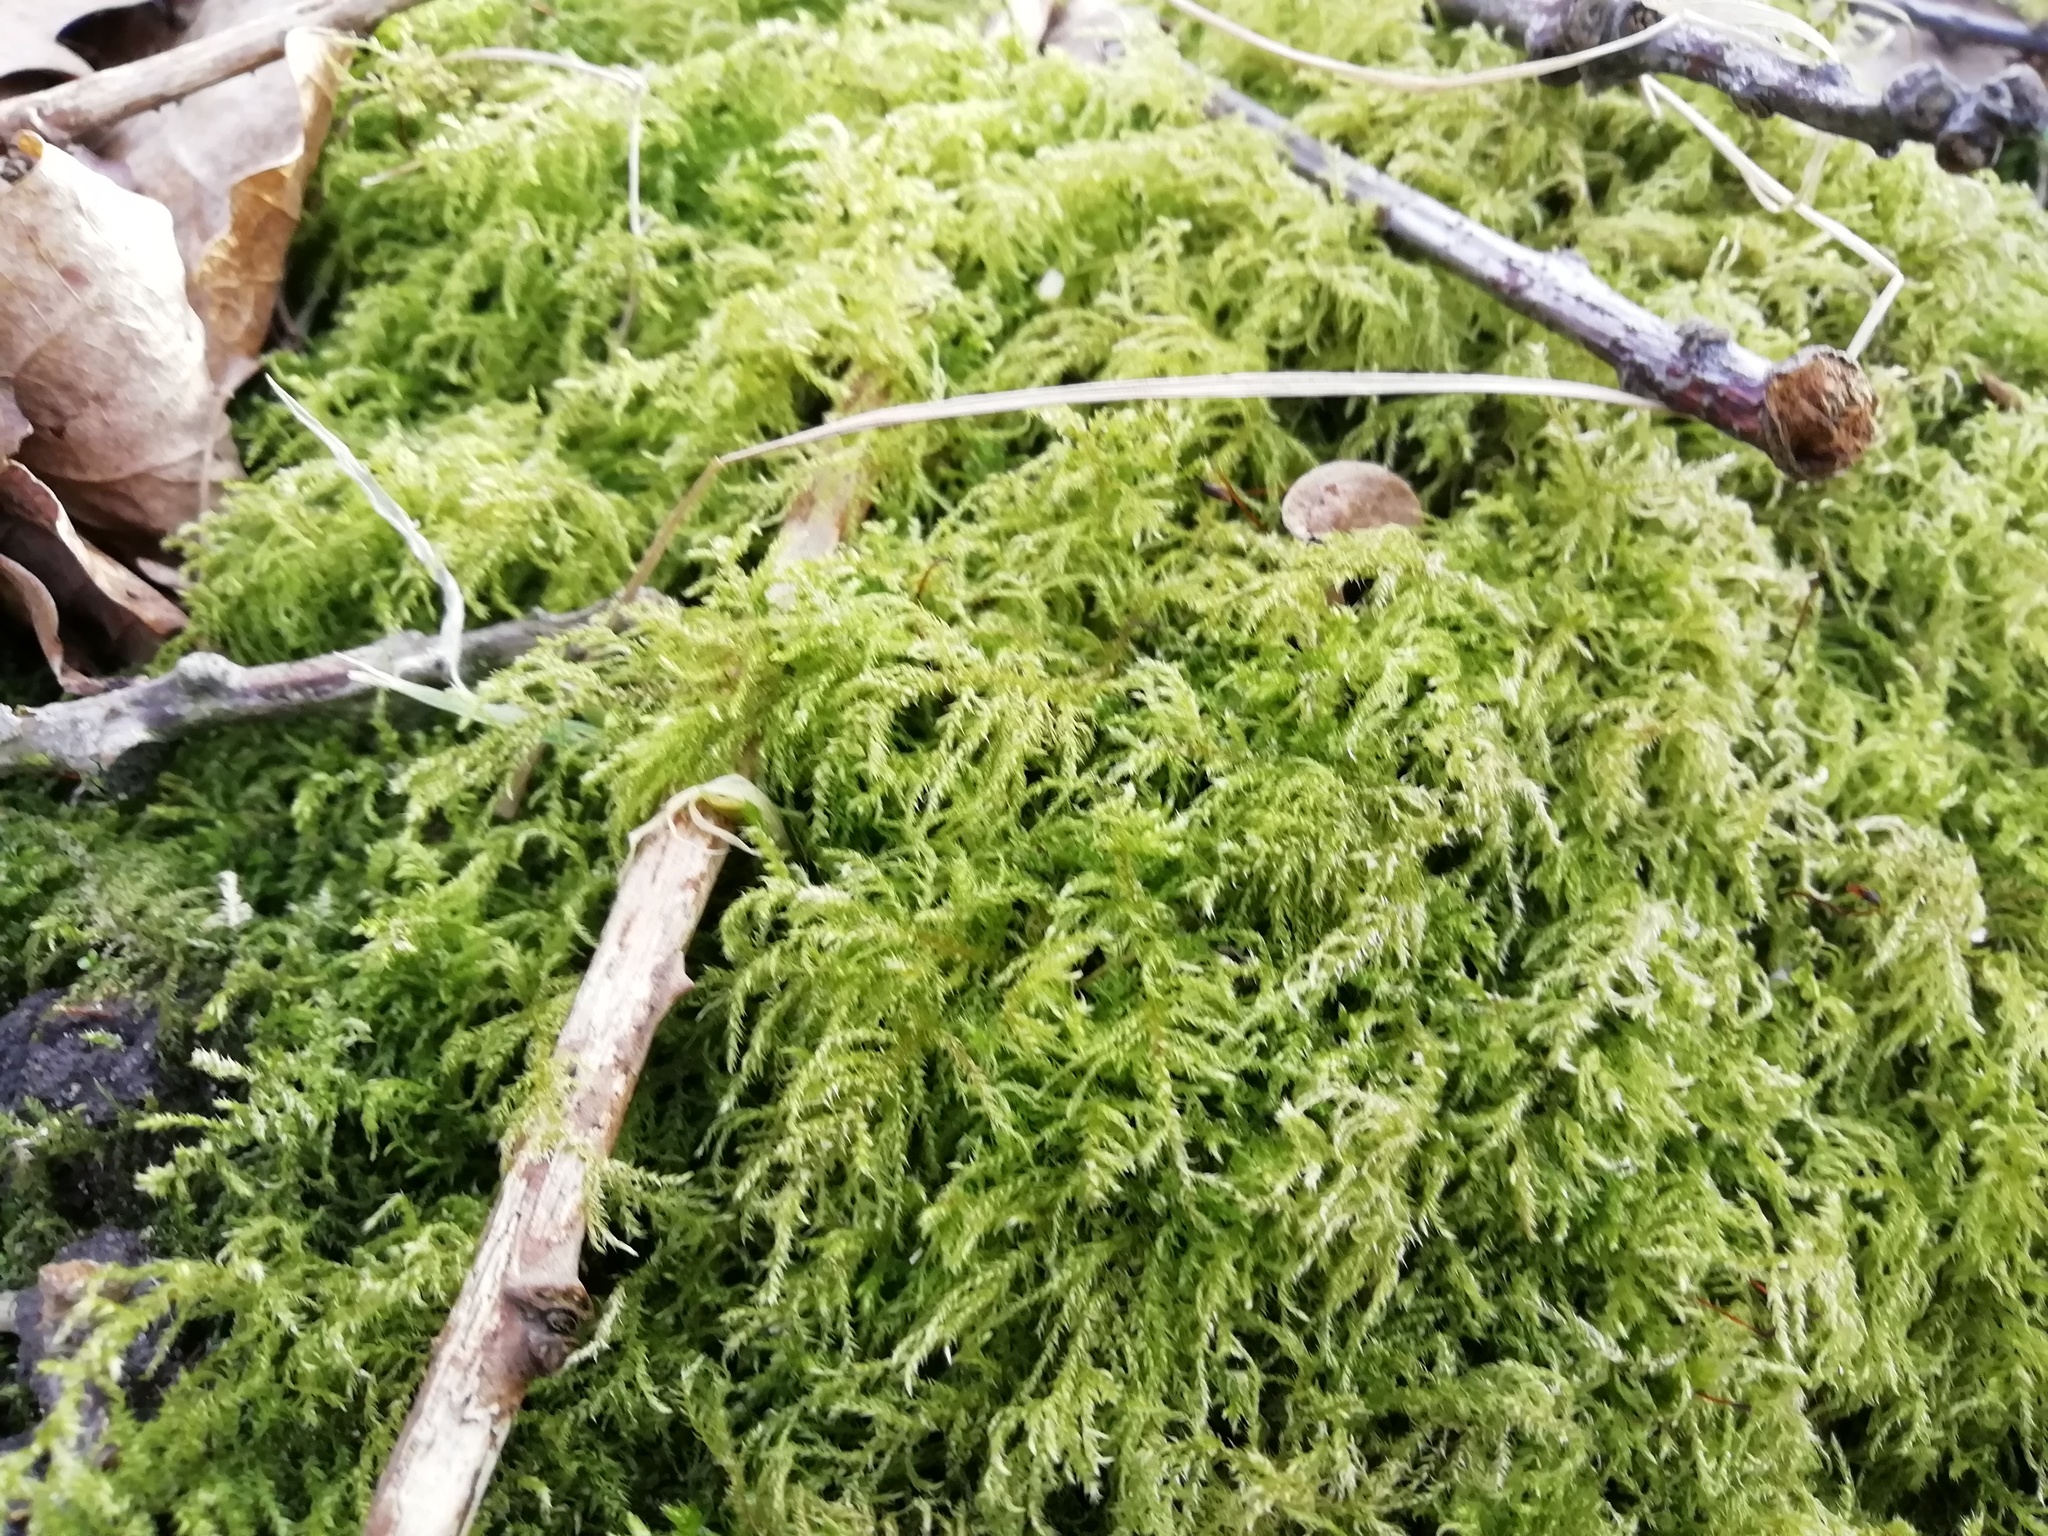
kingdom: Plantae
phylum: Bryophyta
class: Bryopsida
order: Hypnales
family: Brachytheciaceae
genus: Kindbergia
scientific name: Kindbergia praelonga
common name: Slender beaked moss
